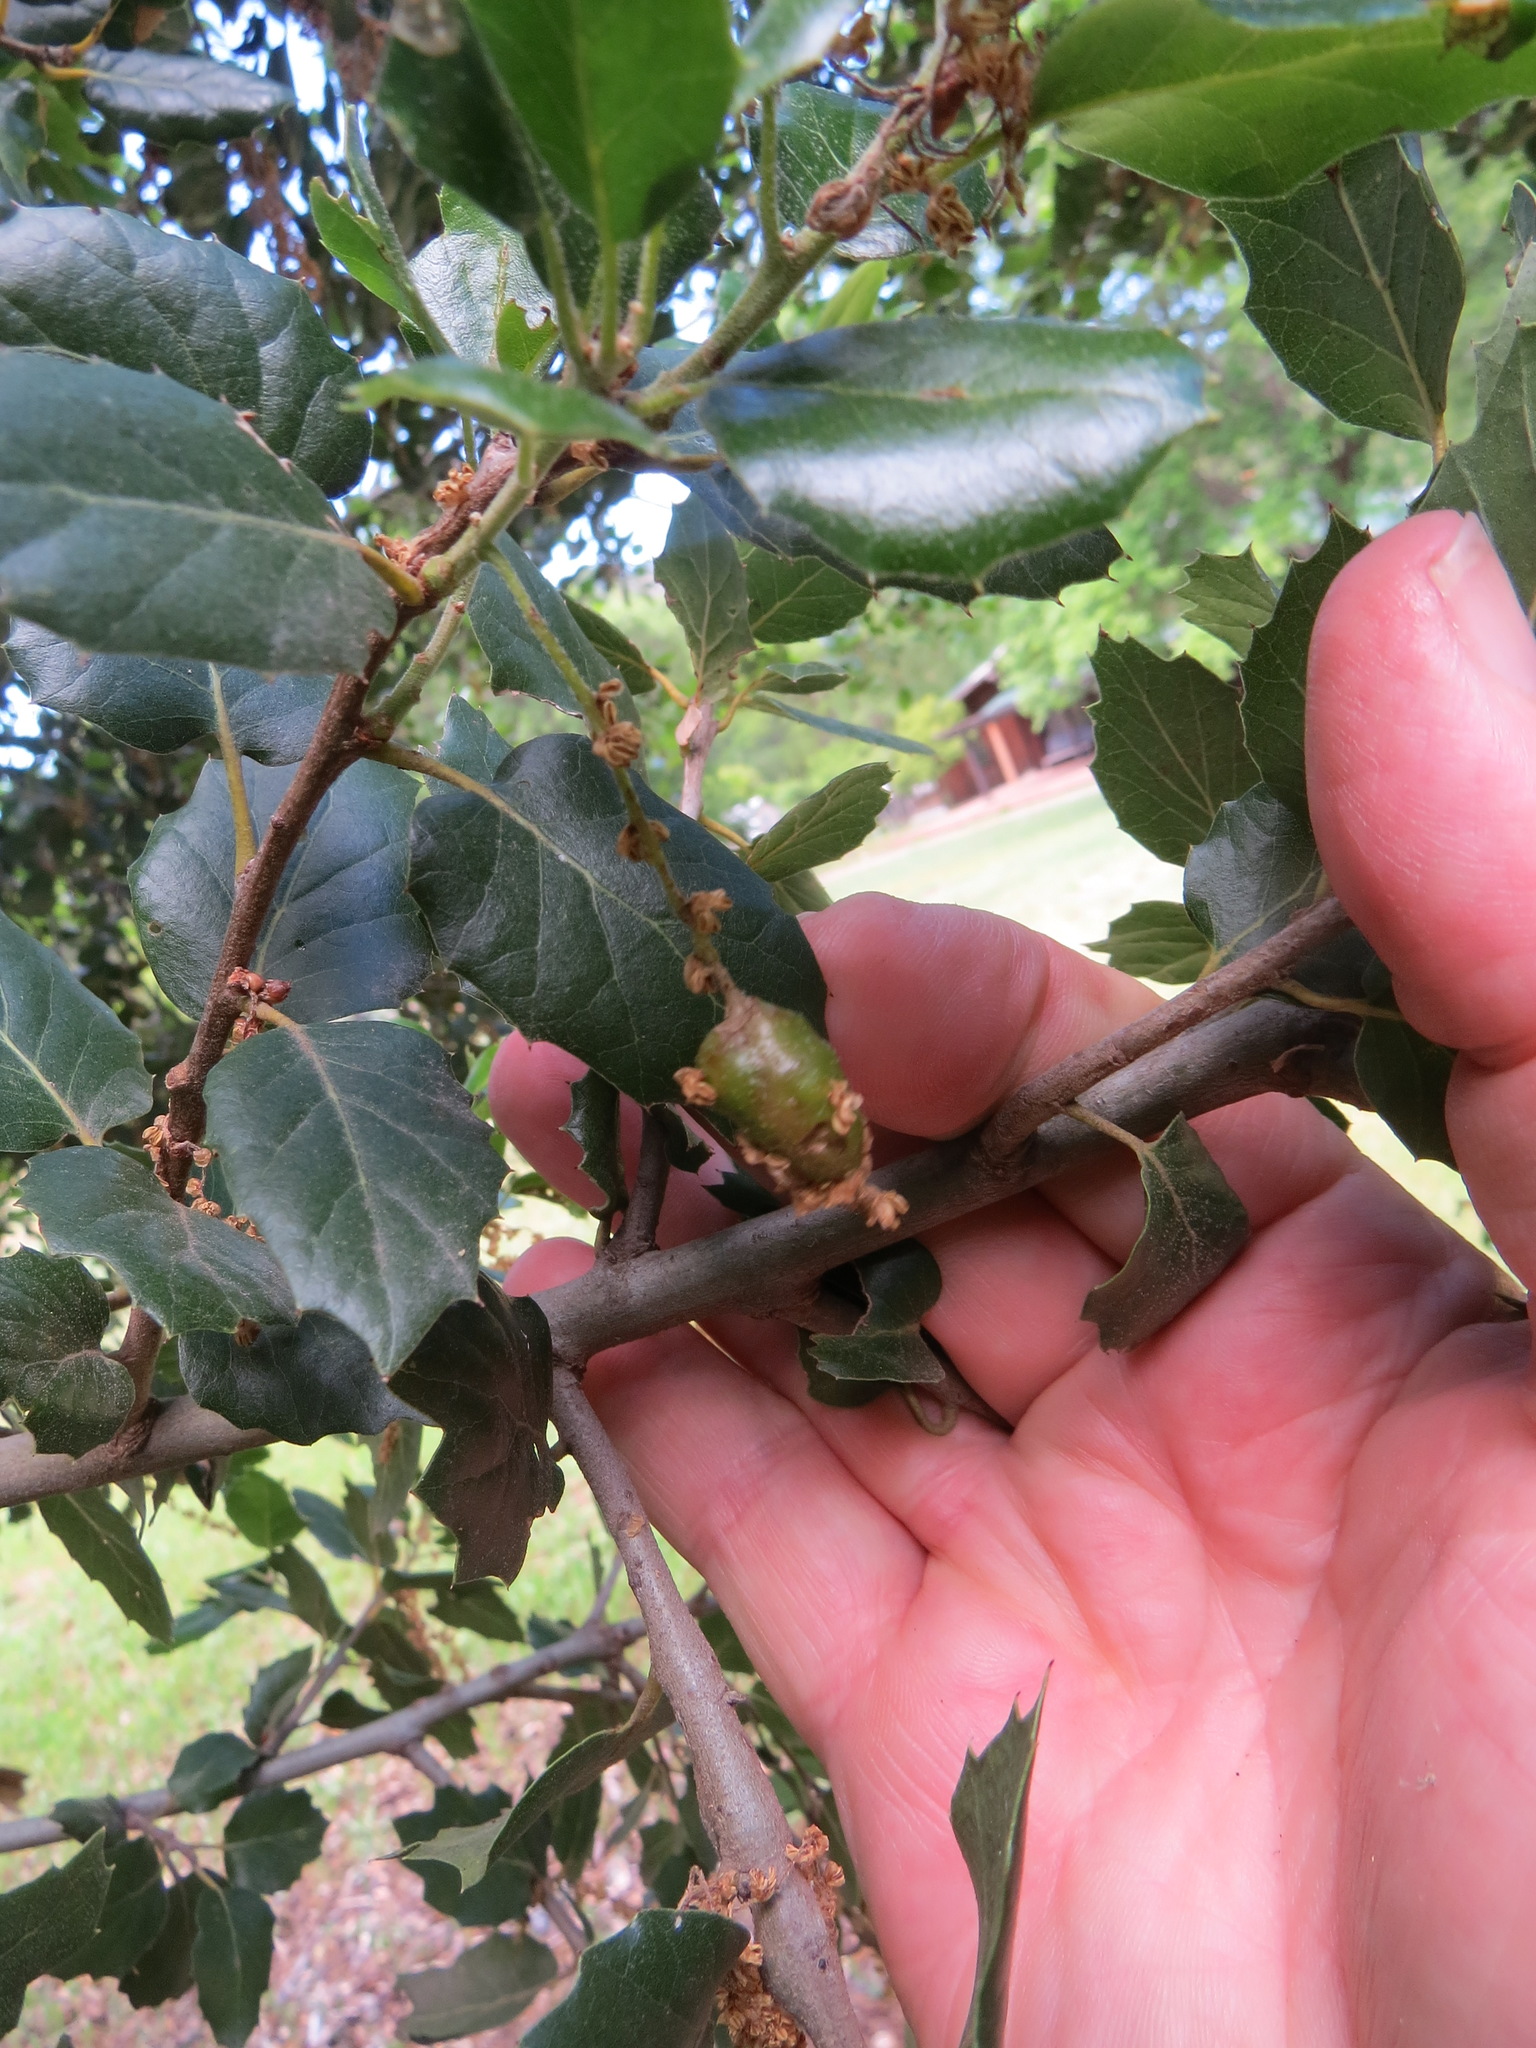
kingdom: Animalia
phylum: Arthropoda
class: Insecta
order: Hymenoptera
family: Cynipidae
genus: Callirhytis
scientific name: Callirhytis
